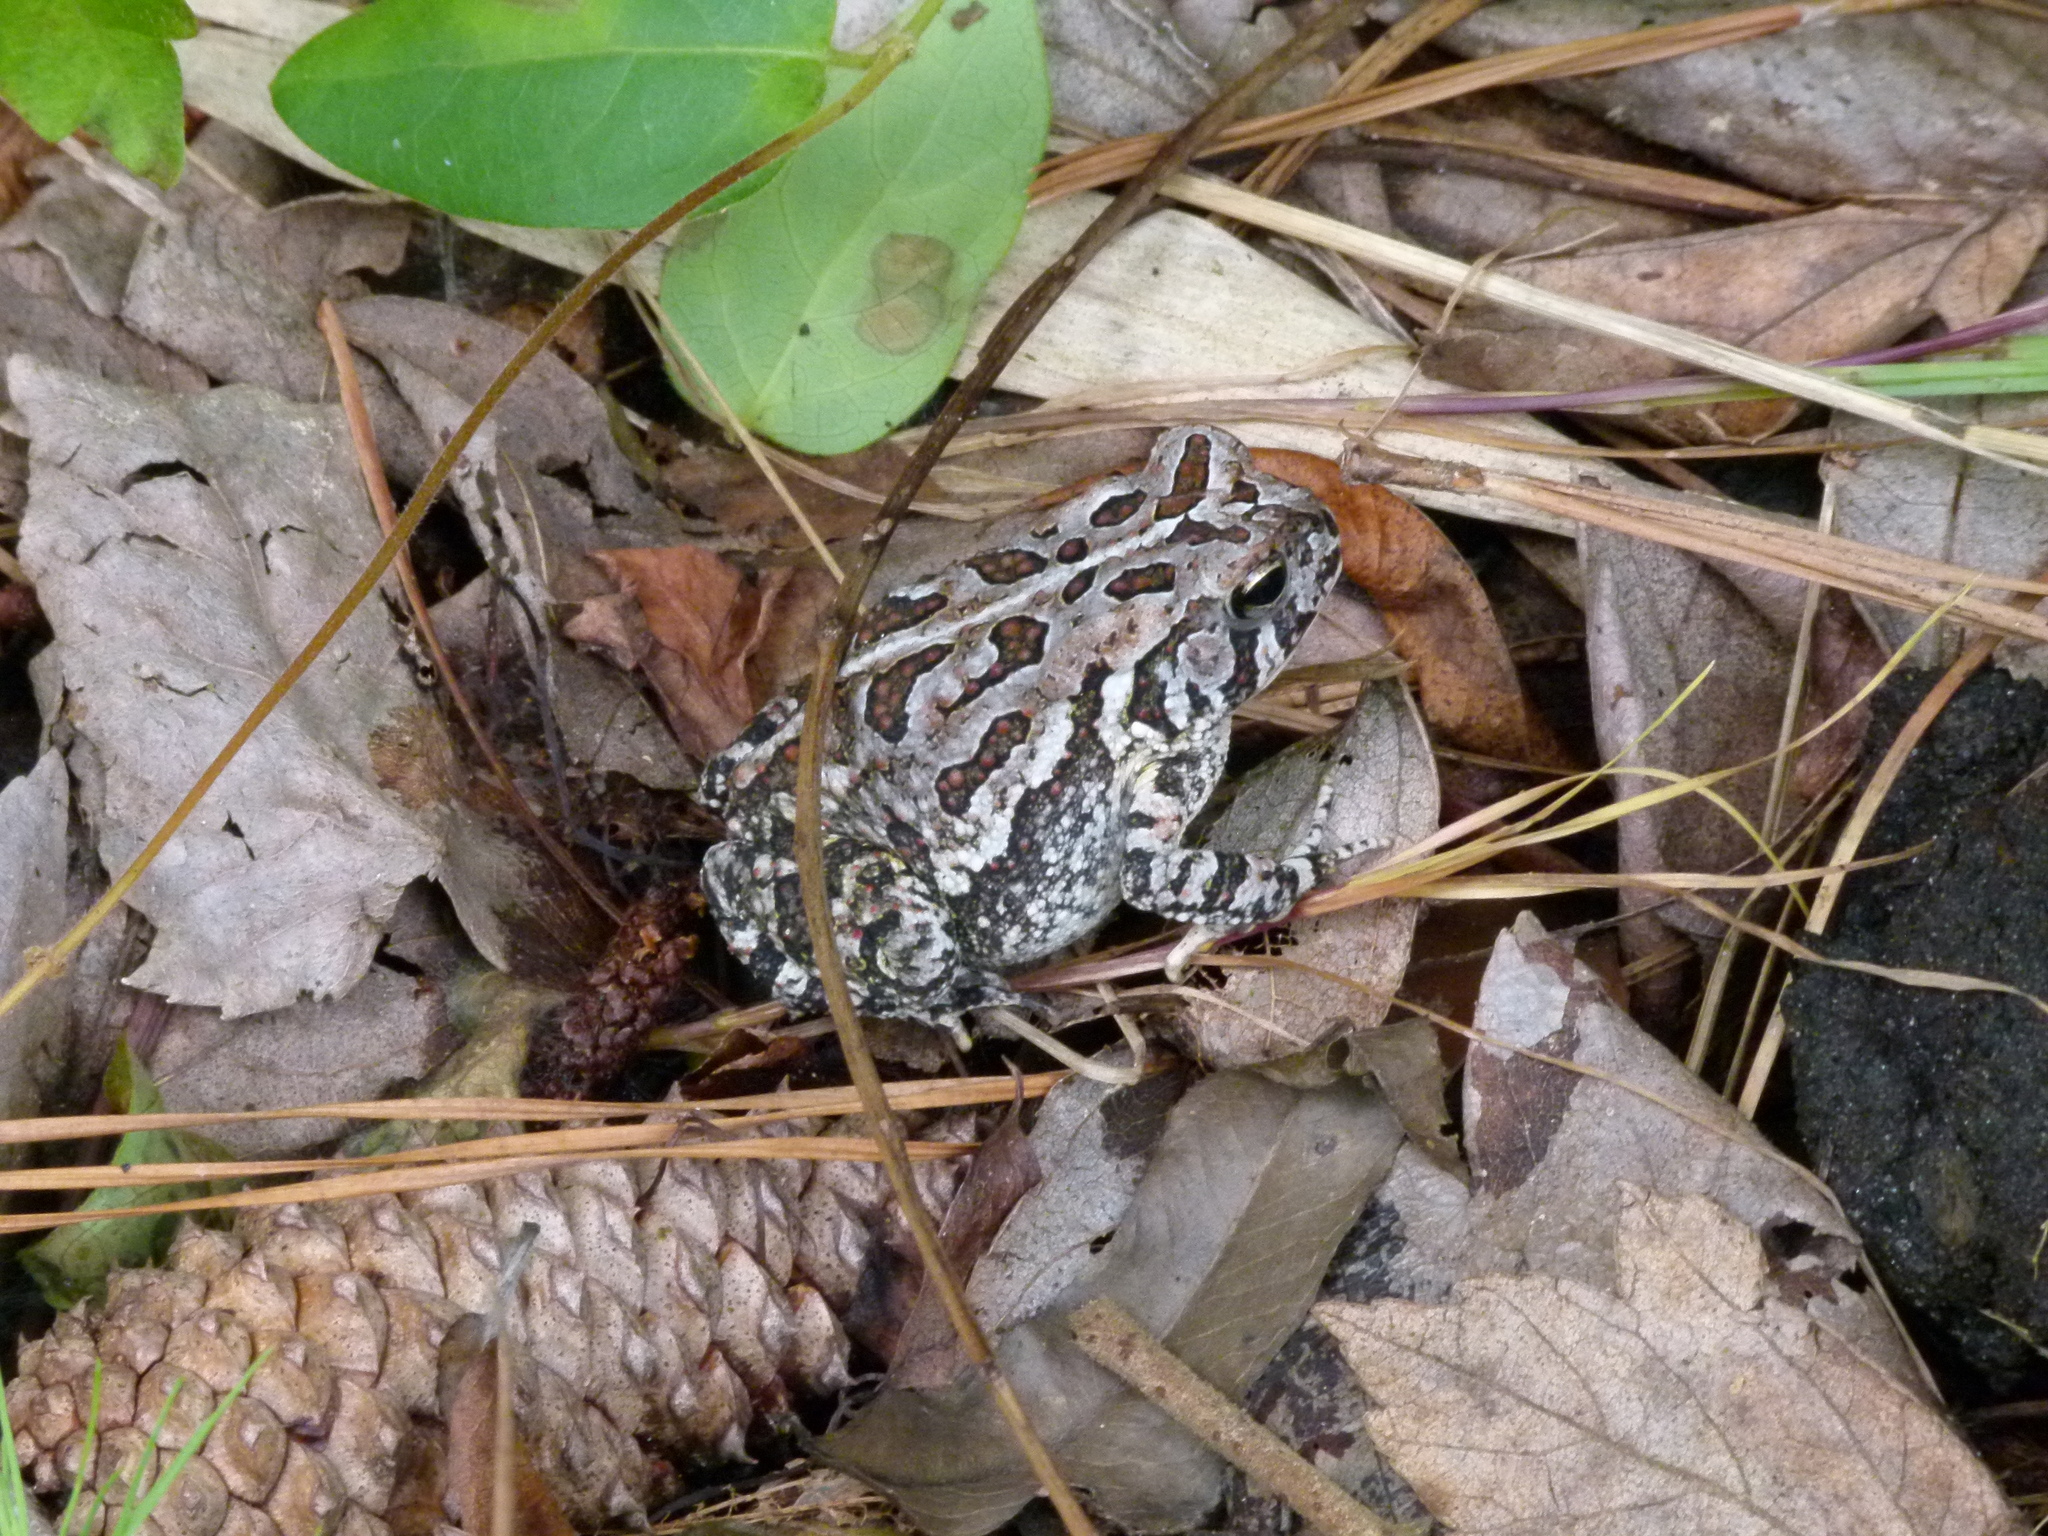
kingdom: Animalia
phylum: Chordata
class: Amphibia
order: Anura
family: Bufonidae
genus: Anaxyrus
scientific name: Anaxyrus fowleri
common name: Fowler's toad
